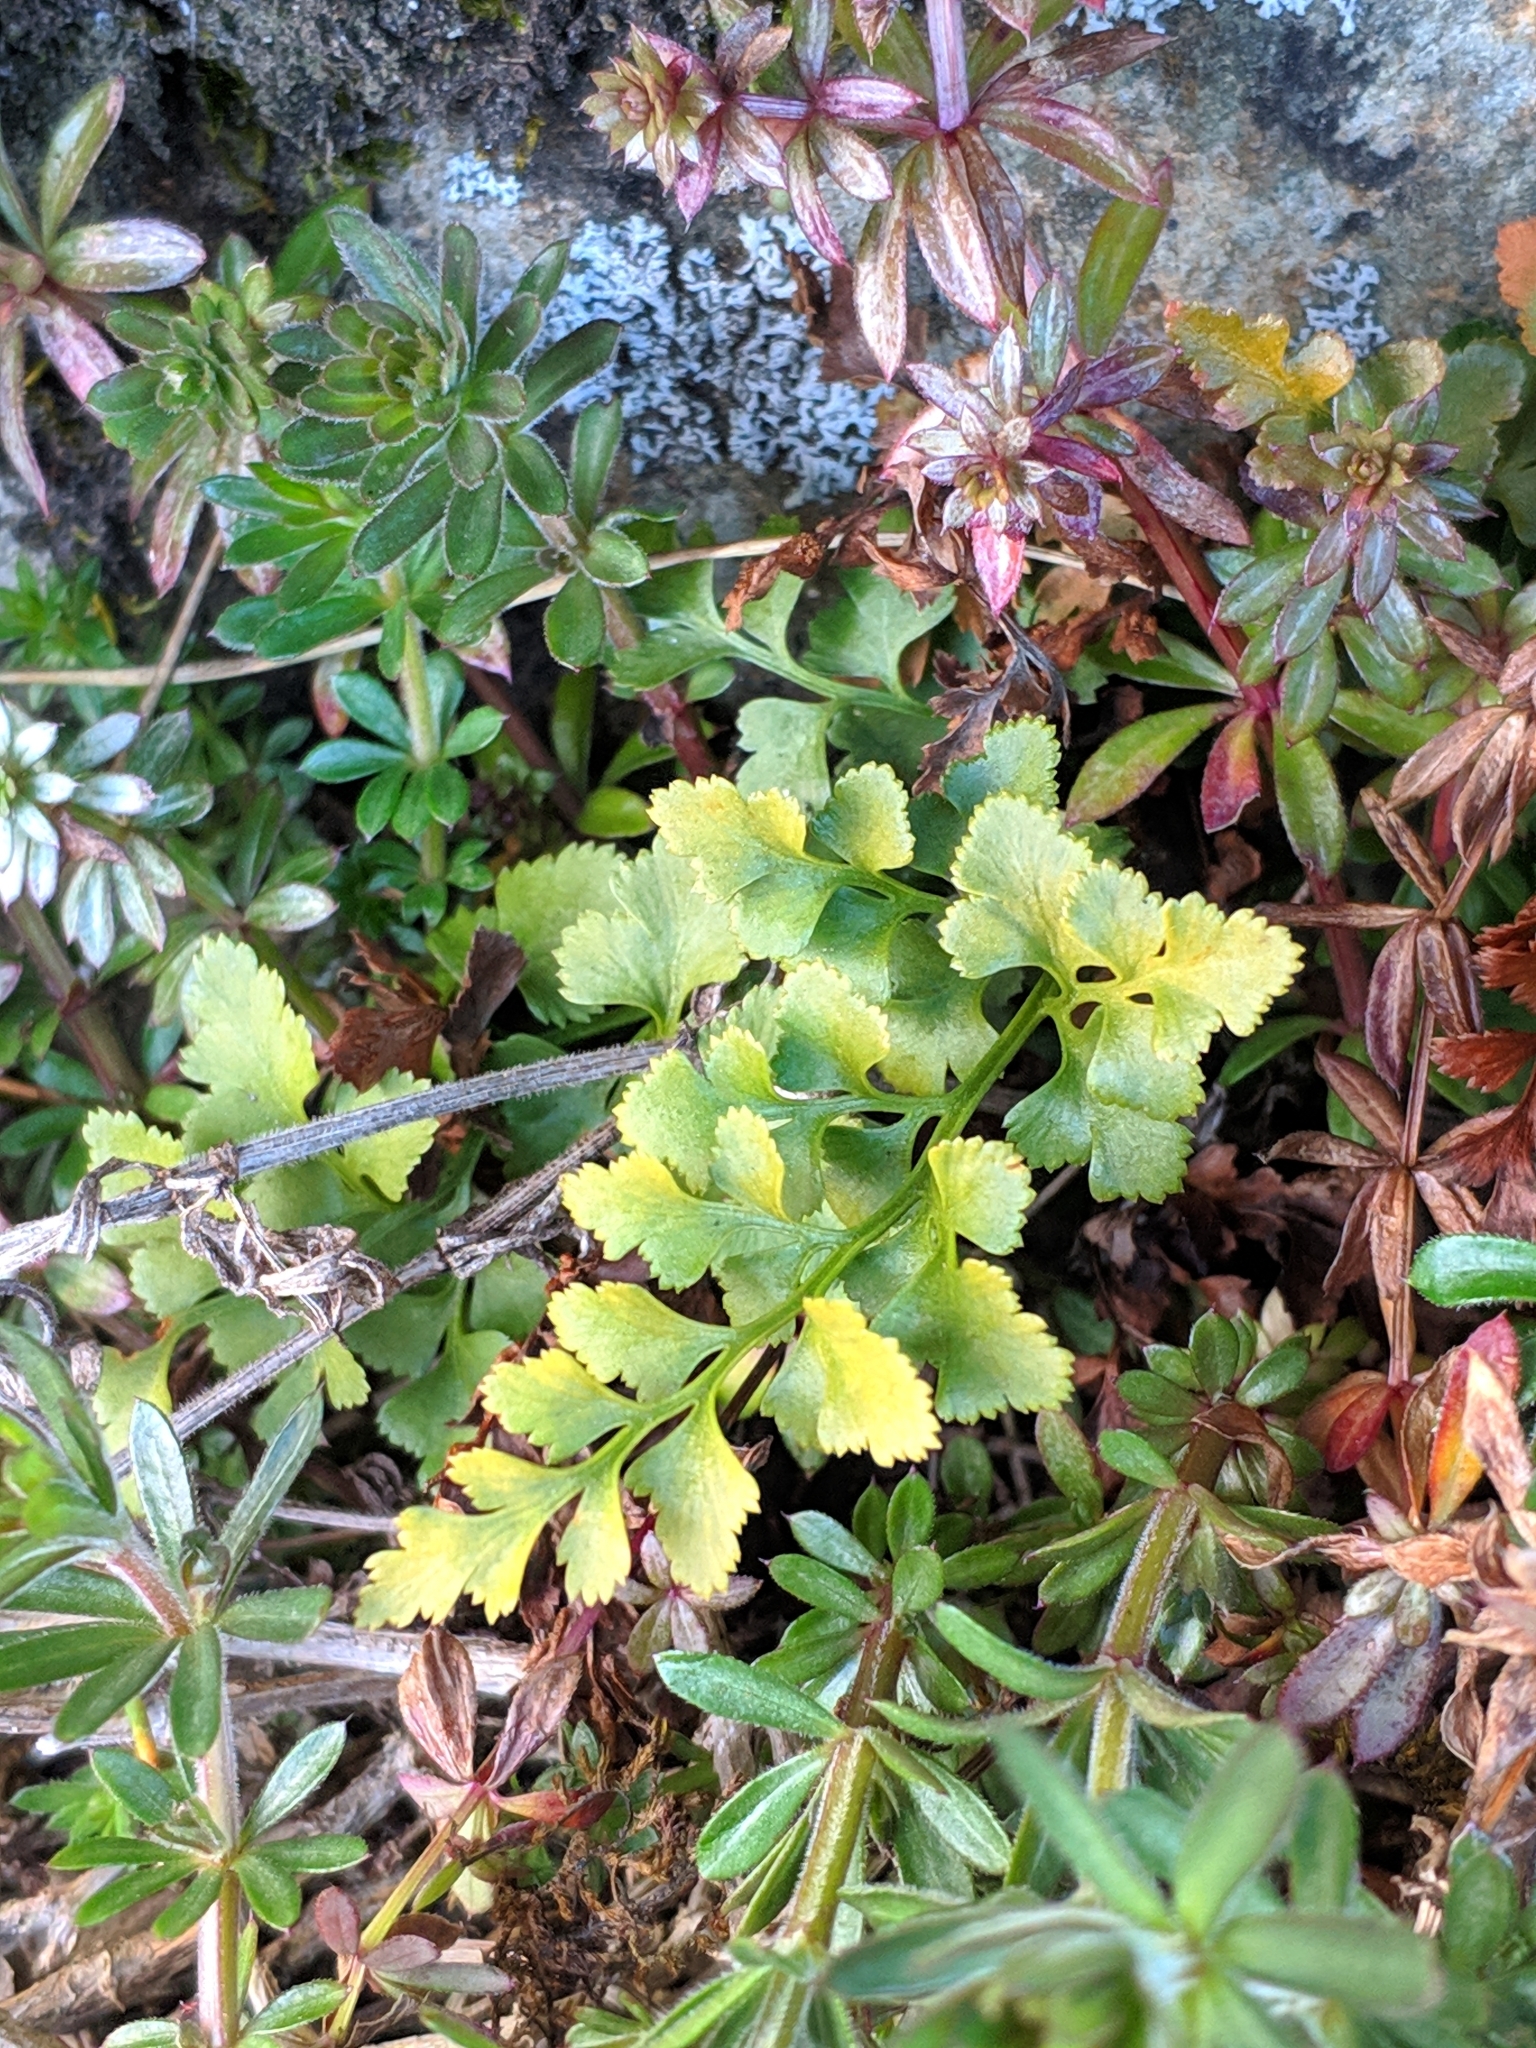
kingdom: Plantae
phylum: Tracheophyta
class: Polypodiopsida
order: Polypodiales
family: Aspleniaceae
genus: Asplenium
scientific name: Asplenium ruta-muraria
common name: Wall-rue
